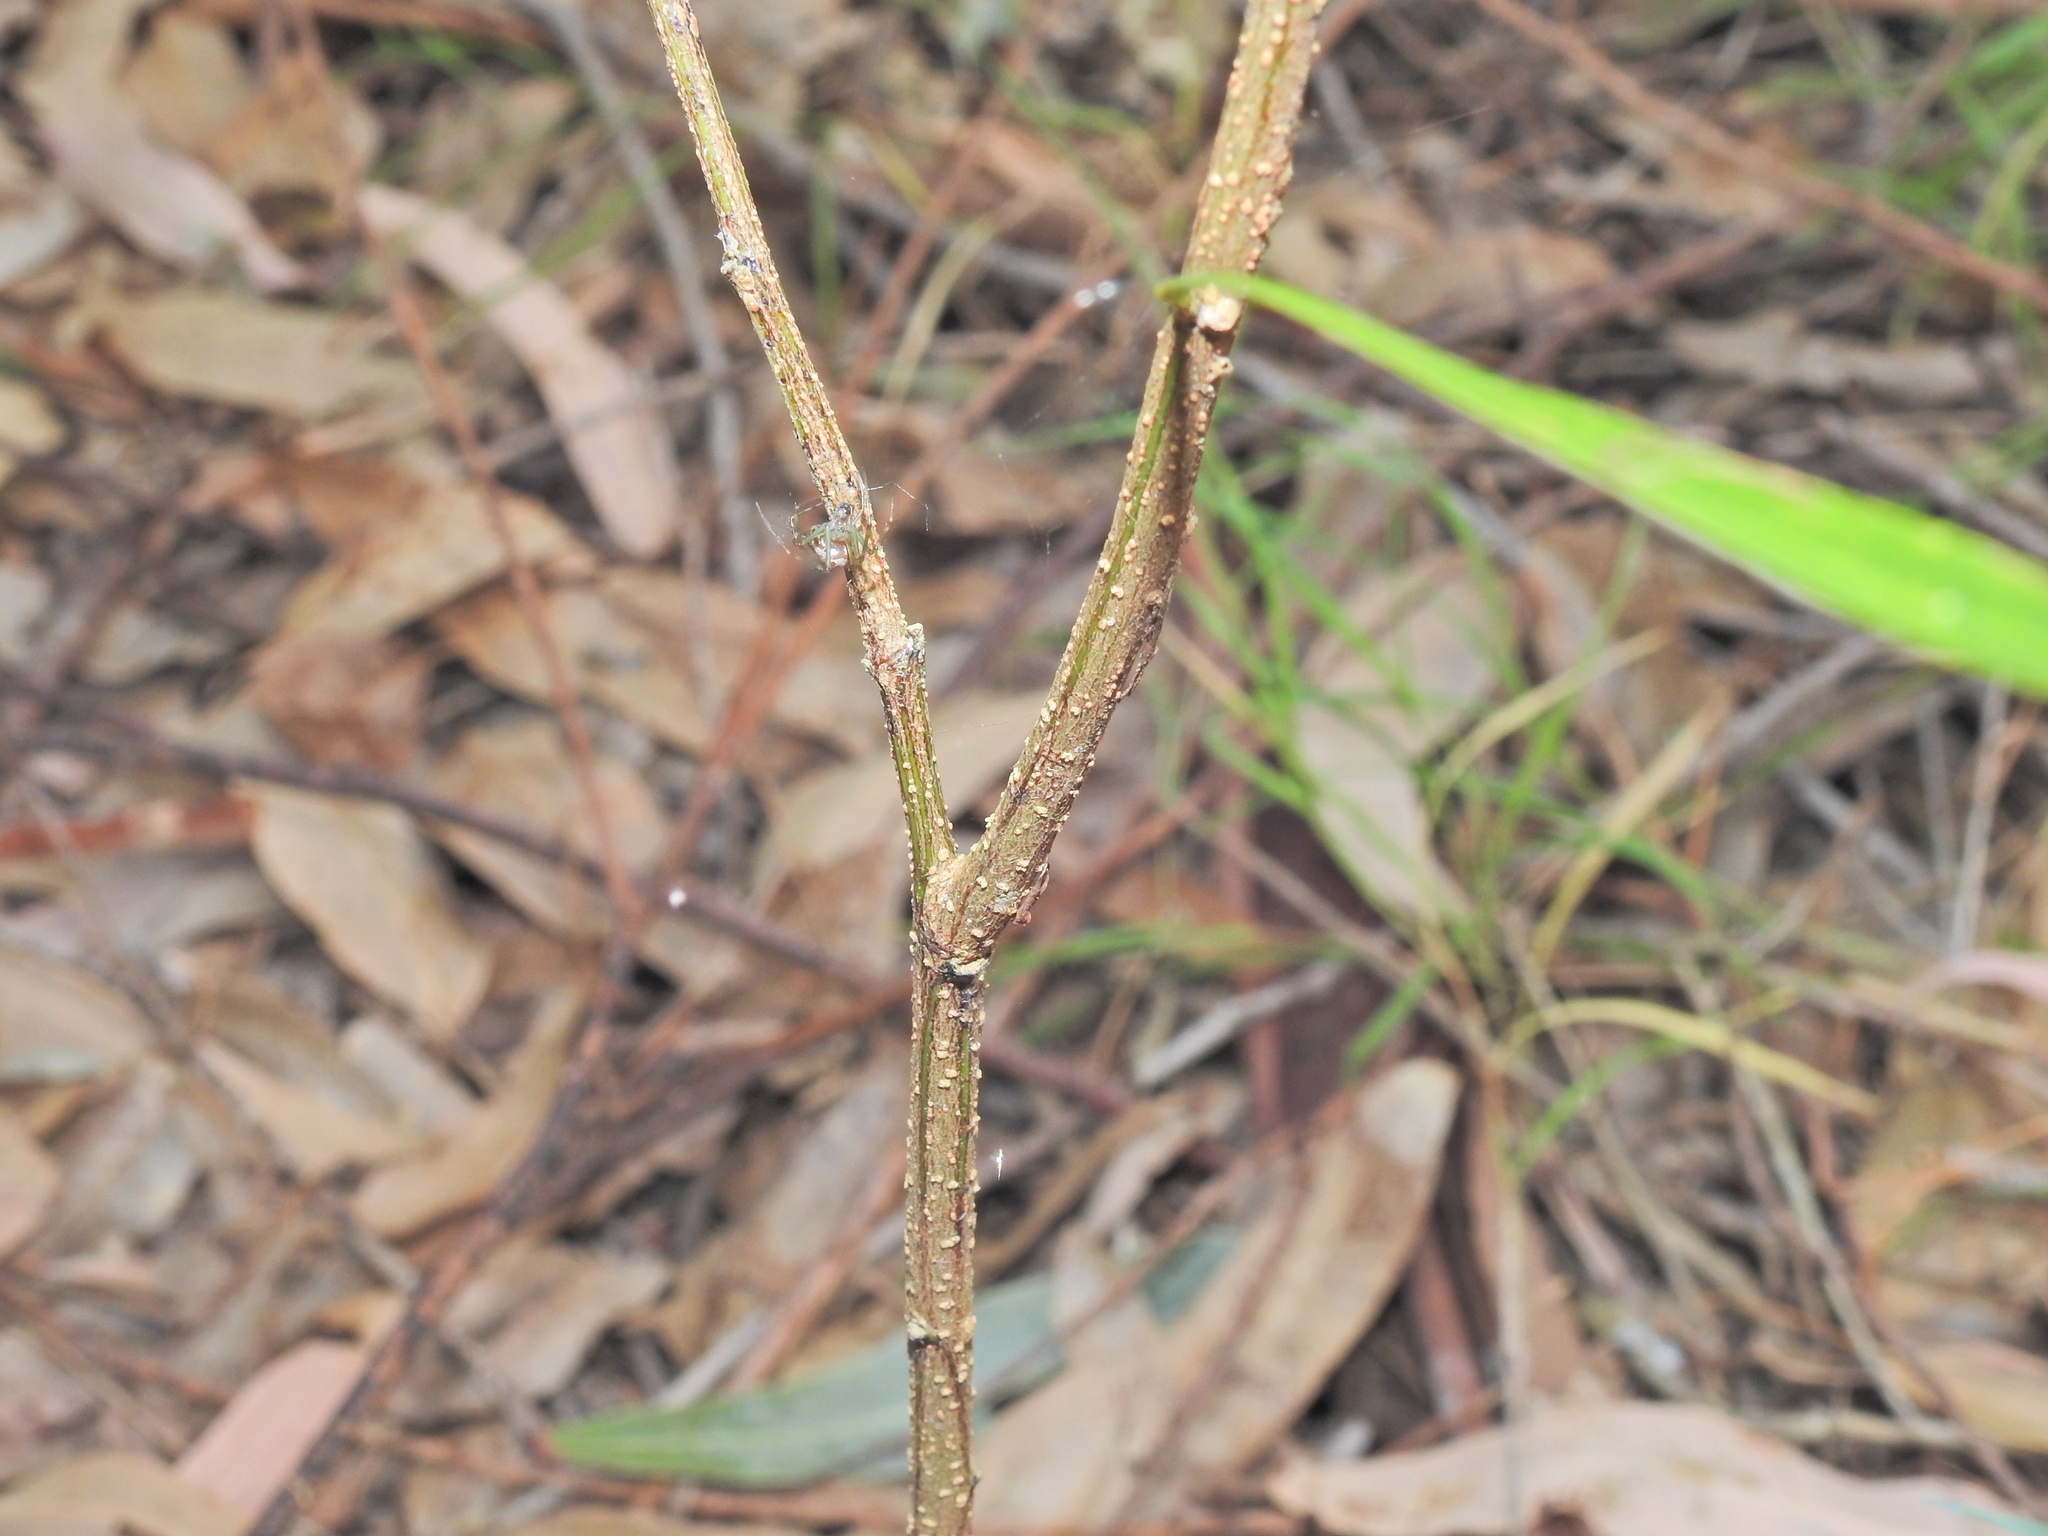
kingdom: Plantae
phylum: Tracheophyta
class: Magnoliopsida
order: Fabales
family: Fabaceae
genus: Acacia
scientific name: Acacia maidenii
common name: Maiden's wattle
